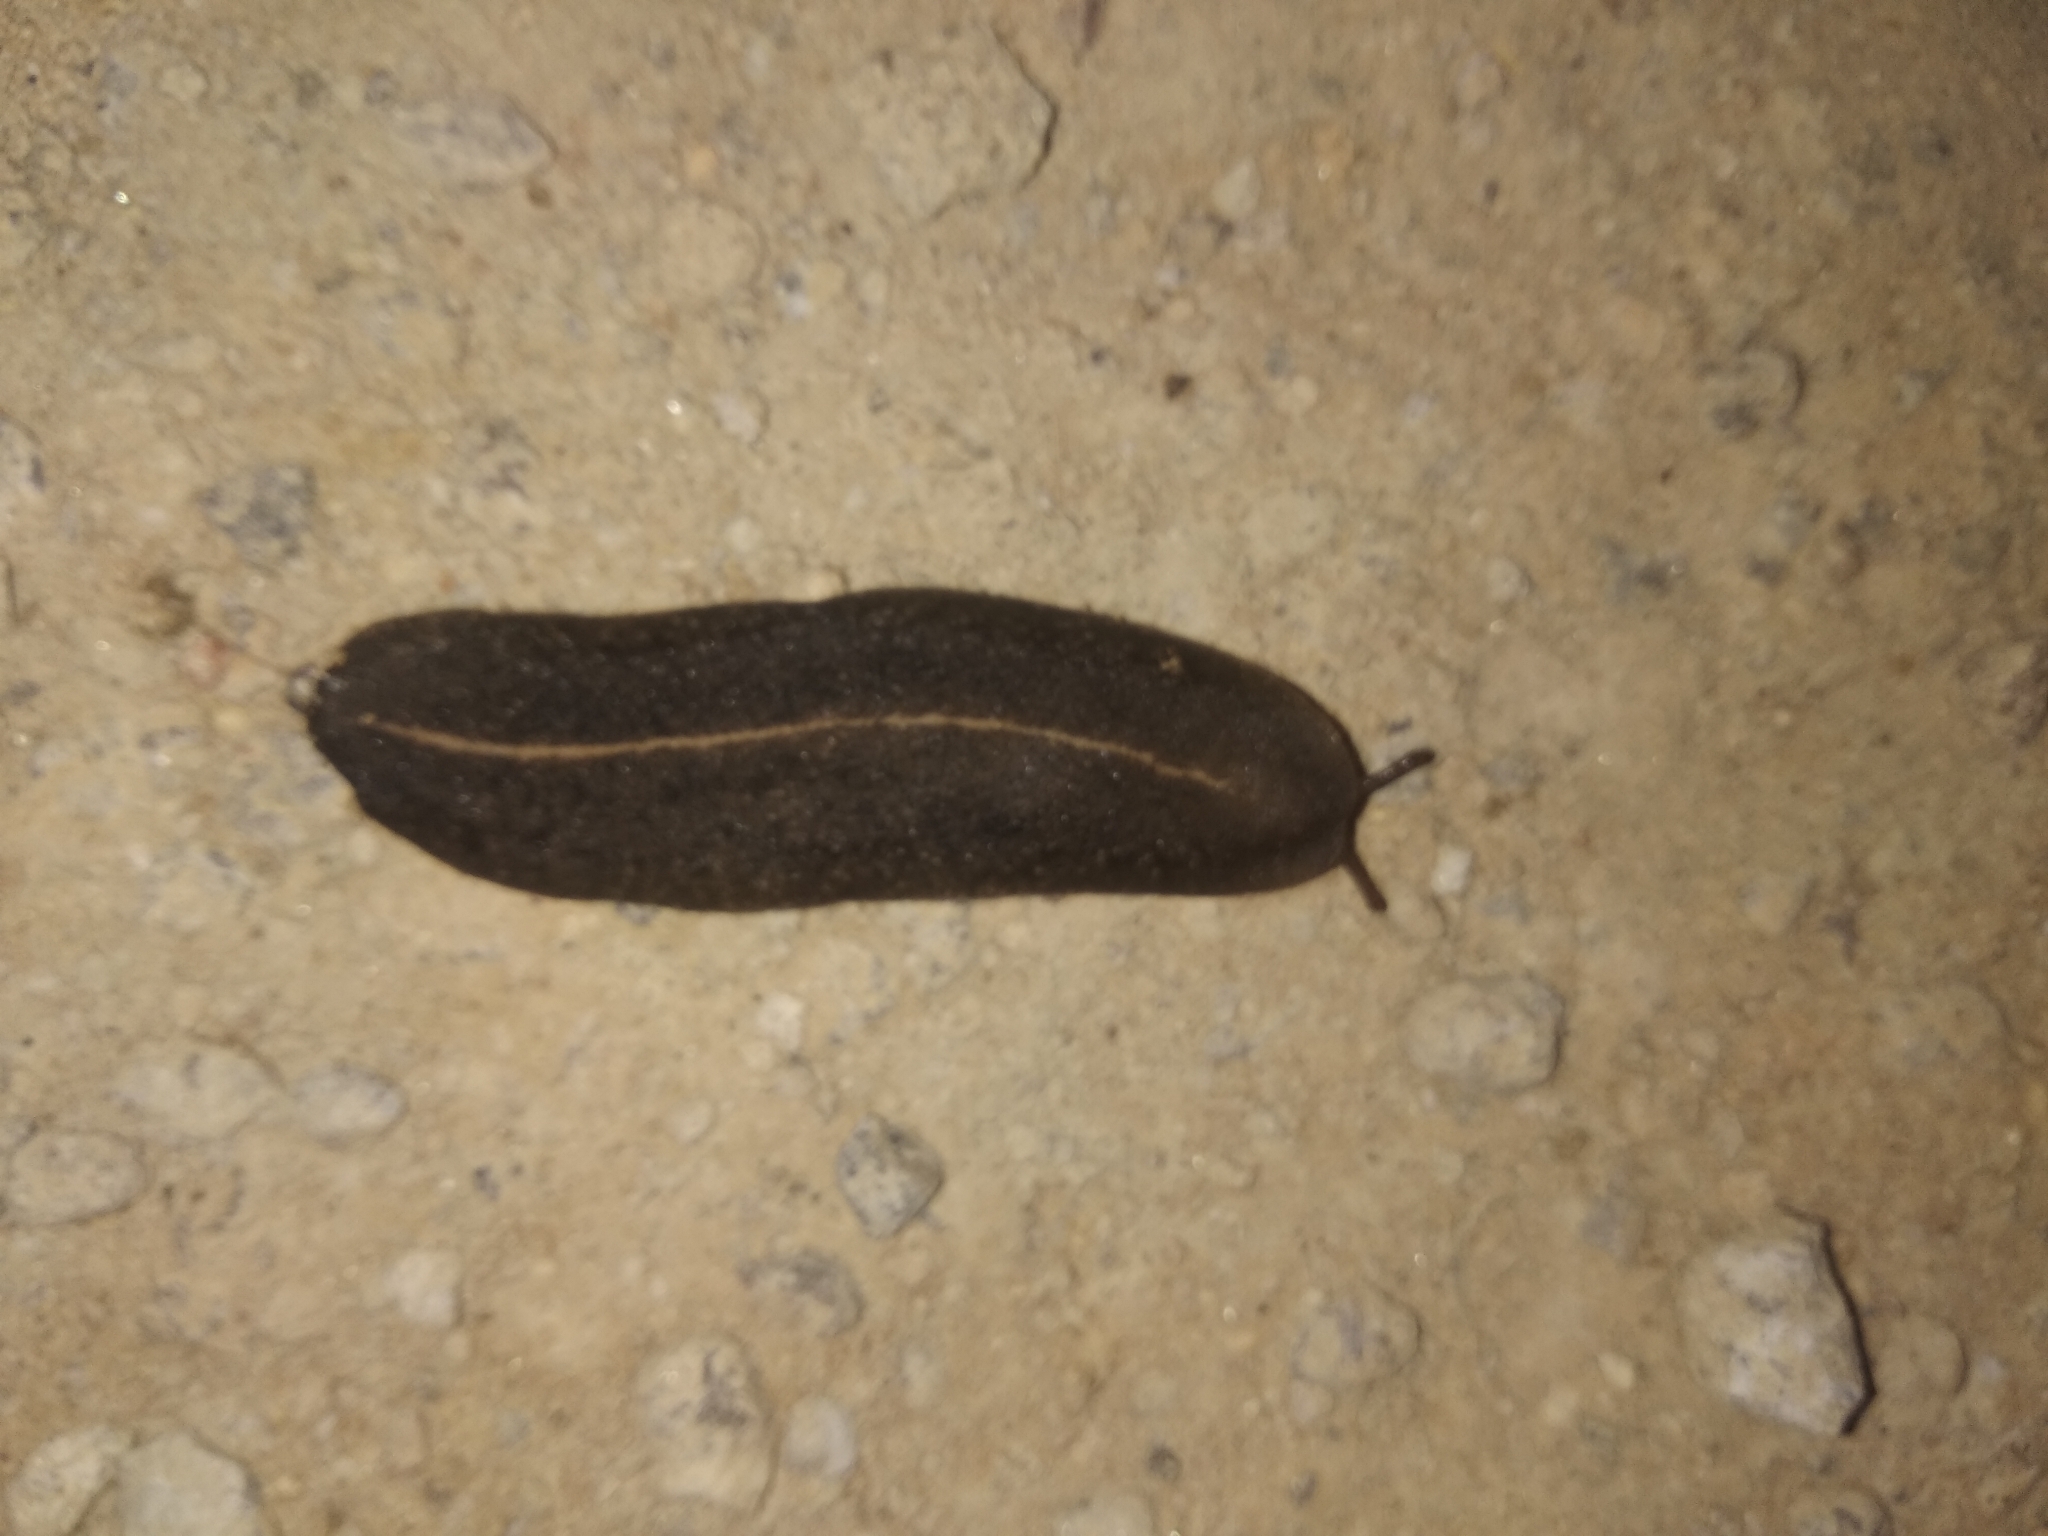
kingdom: Animalia
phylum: Mollusca
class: Gastropoda
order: Systellommatophora
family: Veronicellidae
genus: Laevicaulis
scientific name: Laevicaulis alte
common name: Tropical leatherleaf
